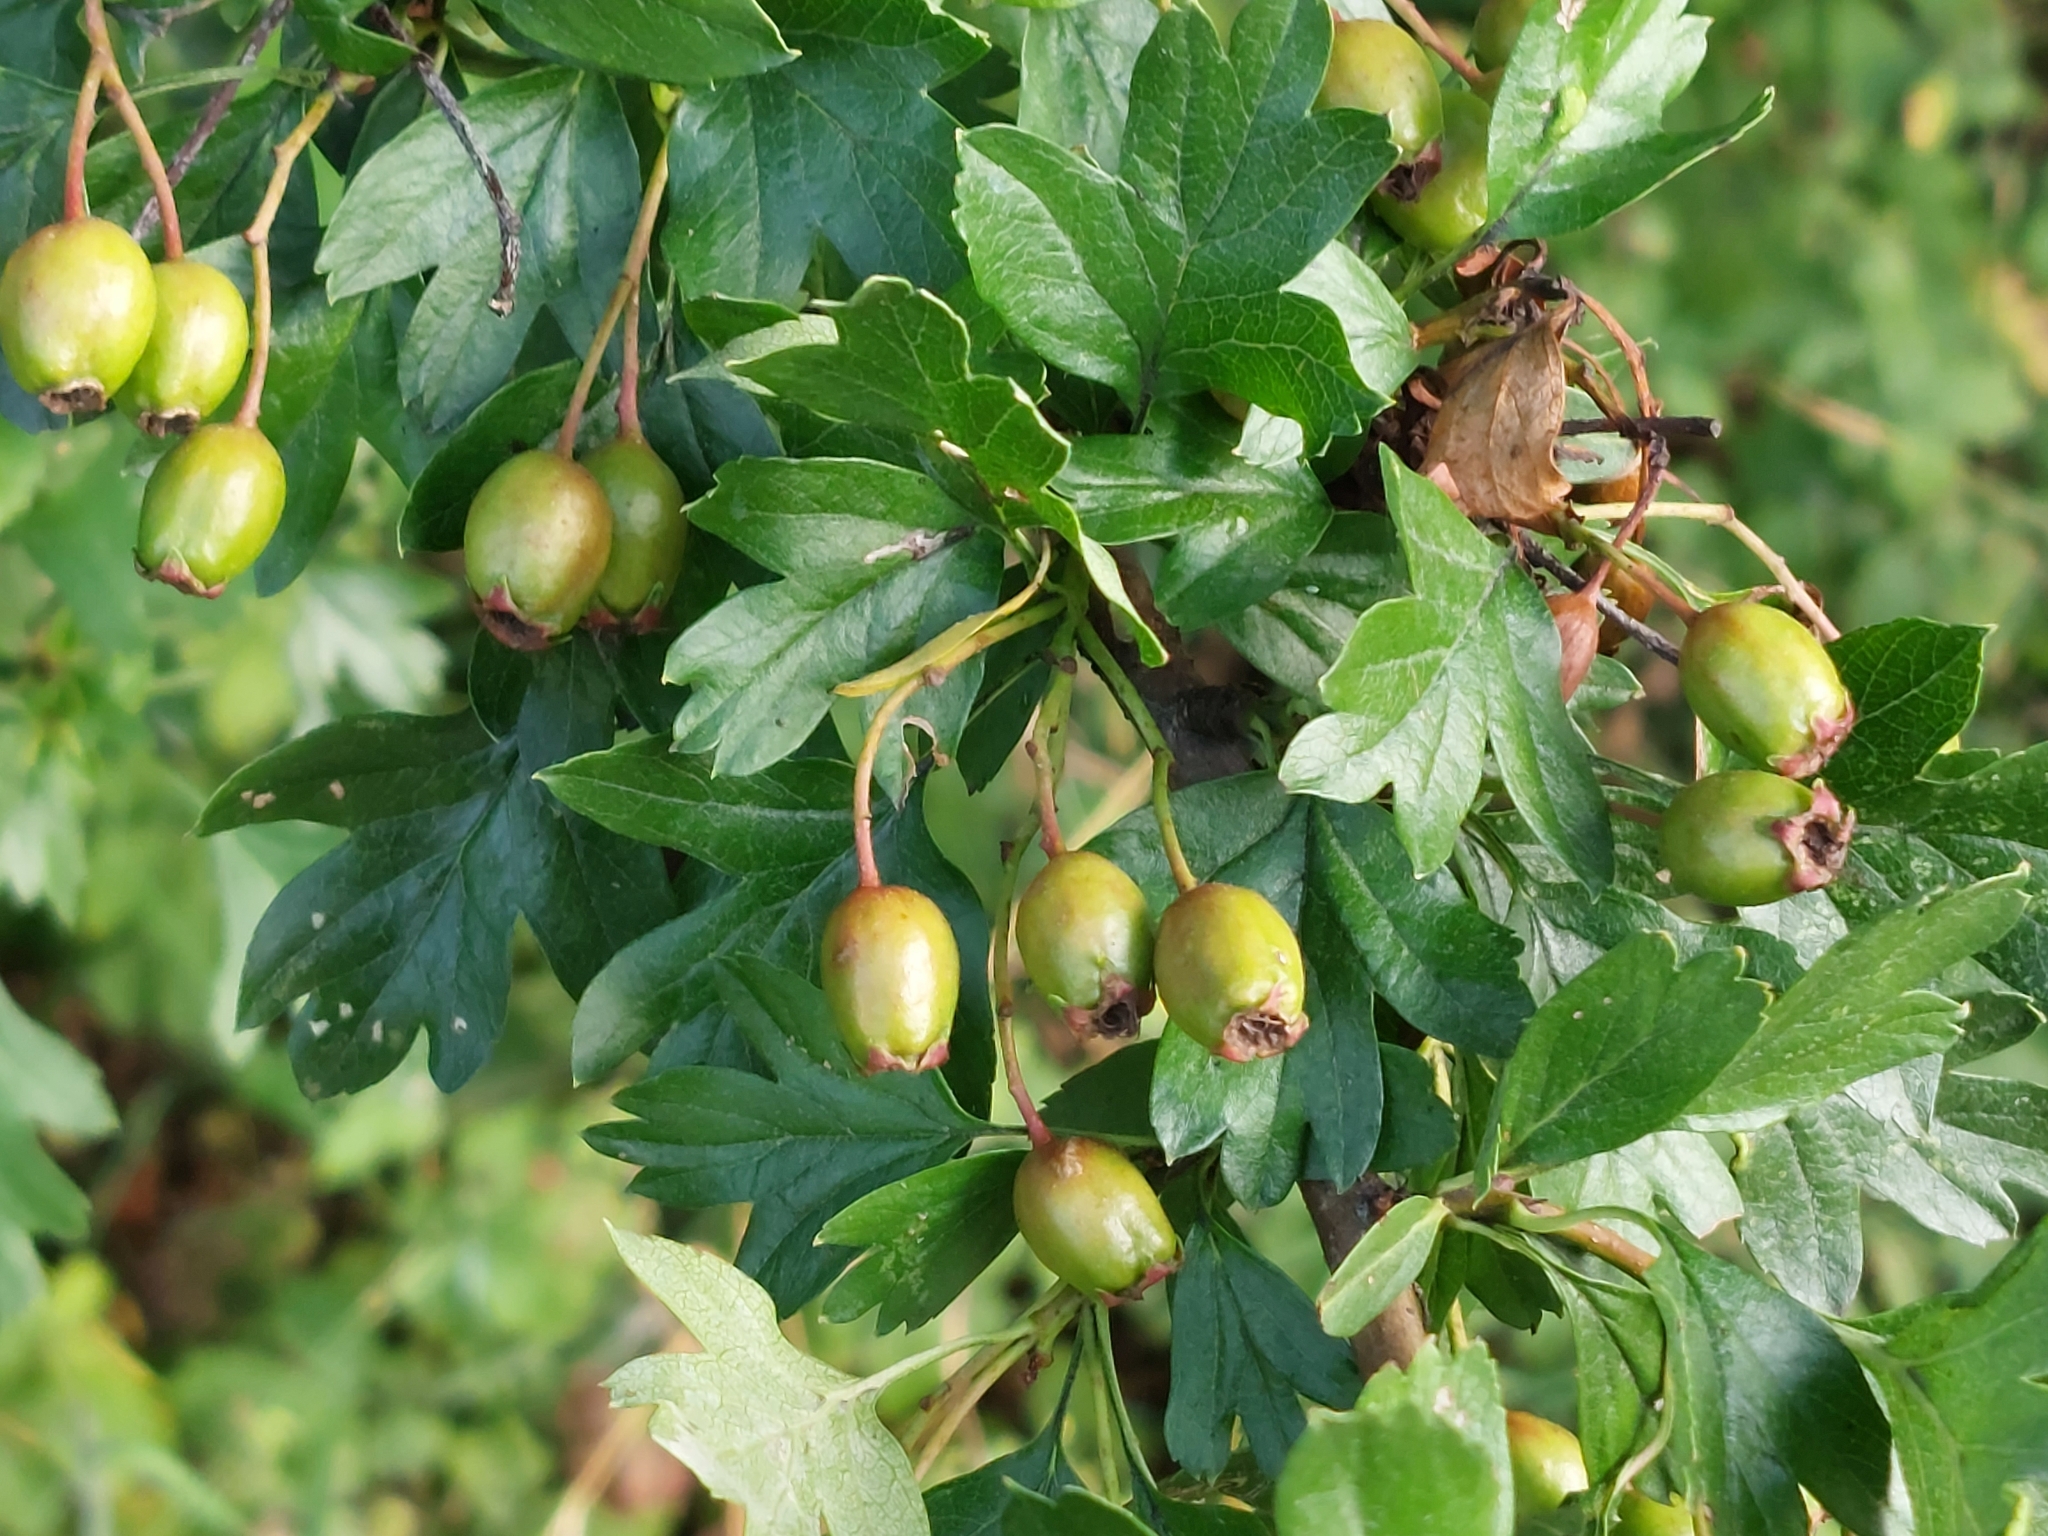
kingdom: Plantae
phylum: Tracheophyta
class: Magnoliopsida
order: Rosales
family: Rosaceae
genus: Crataegus
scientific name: Crataegus monogyna
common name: Hawthorn
